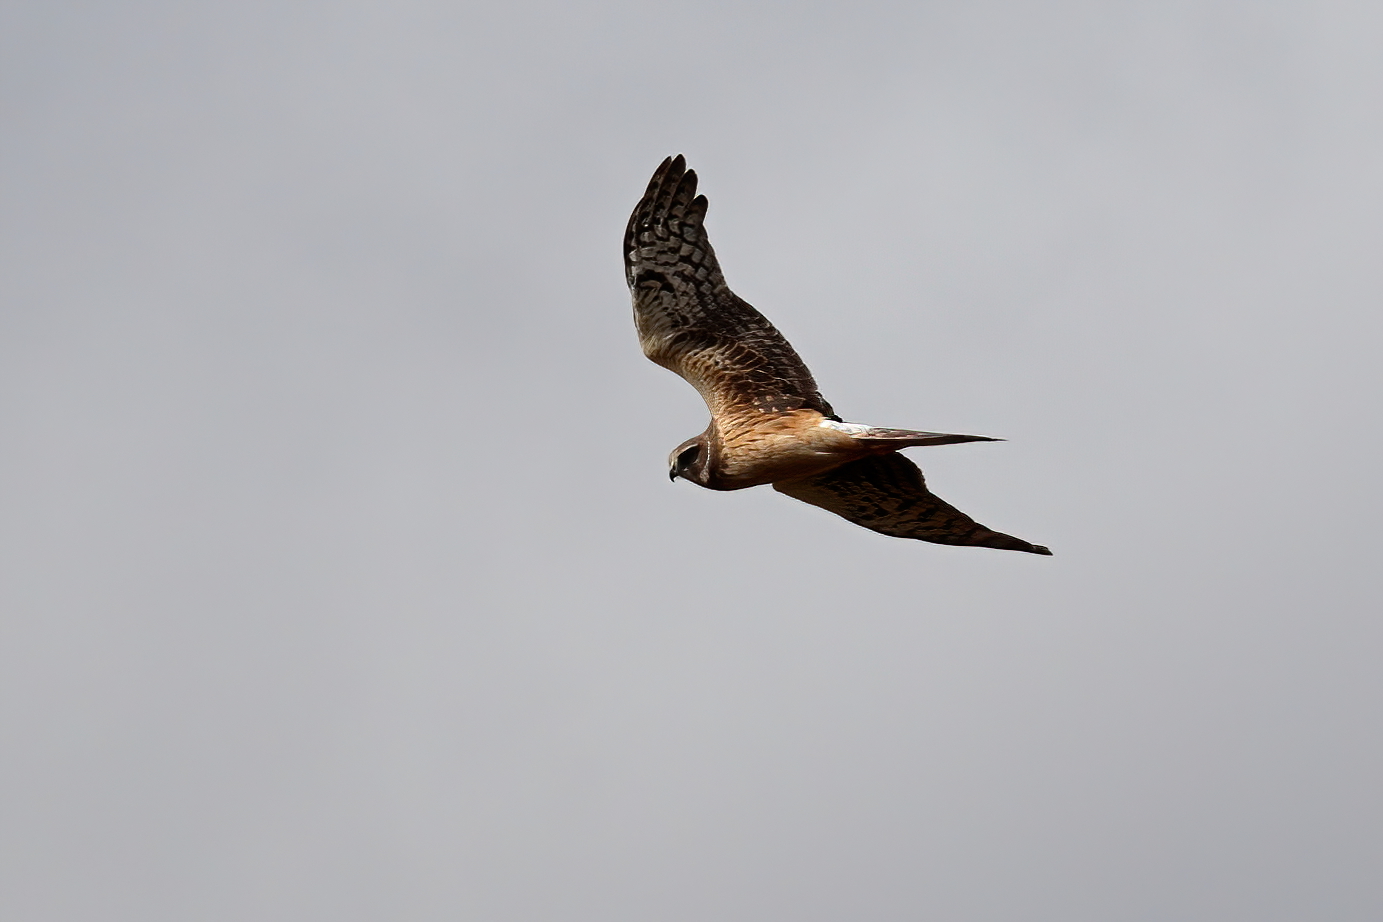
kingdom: Animalia
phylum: Chordata
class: Aves
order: Accipitriformes
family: Accipitridae
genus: Circus
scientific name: Circus cyaneus
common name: Hen harrier
